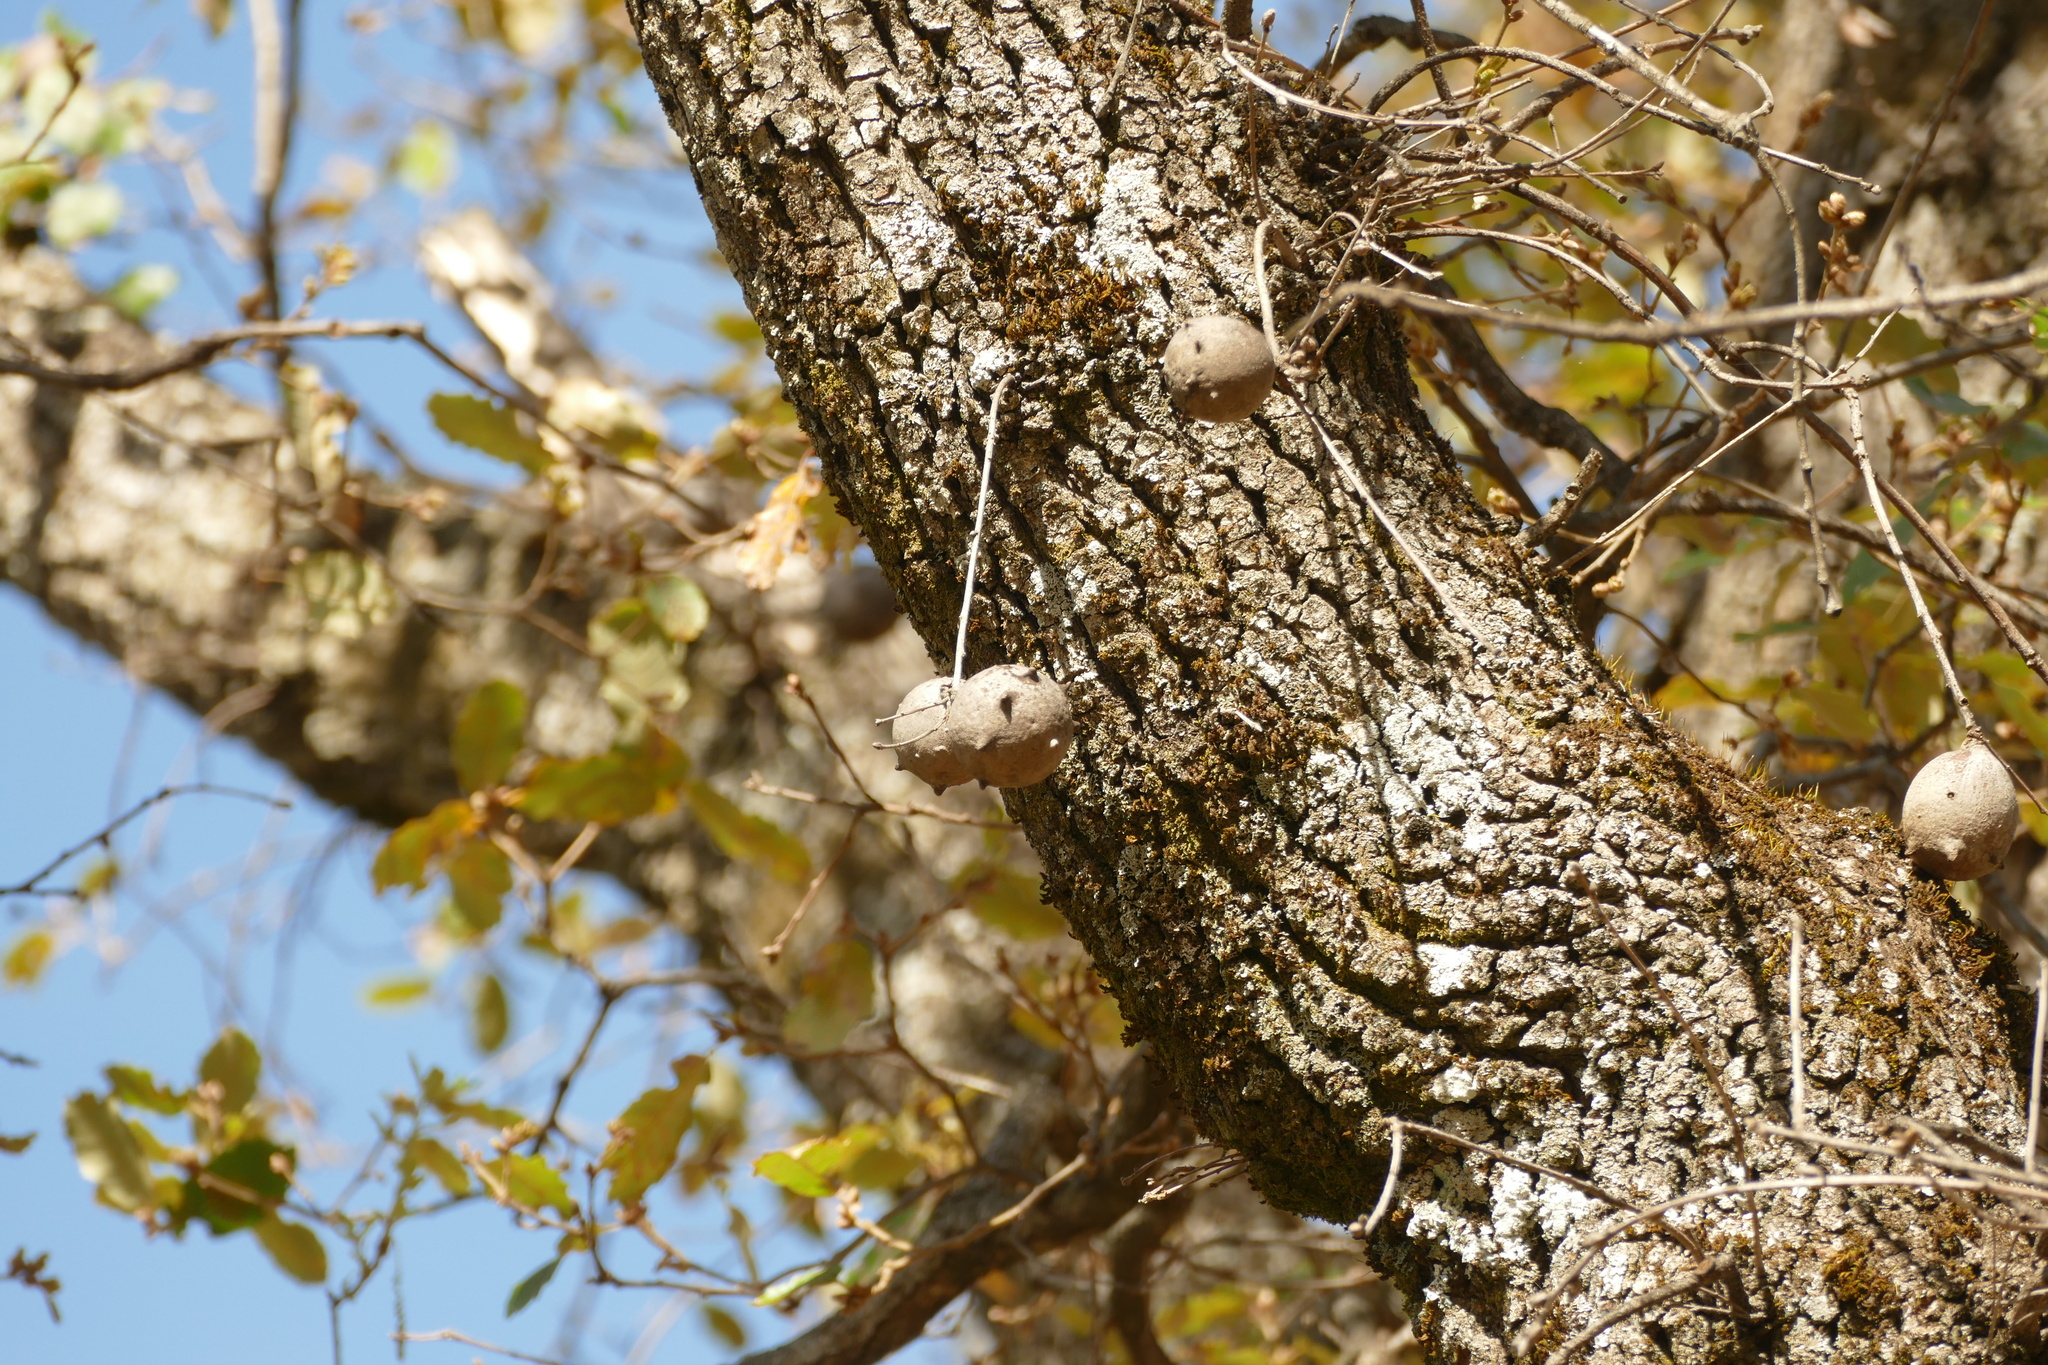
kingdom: Animalia
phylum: Arthropoda
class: Insecta
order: Hymenoptera
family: Cynipidae
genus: Andricus
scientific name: Andricus quercustozae
